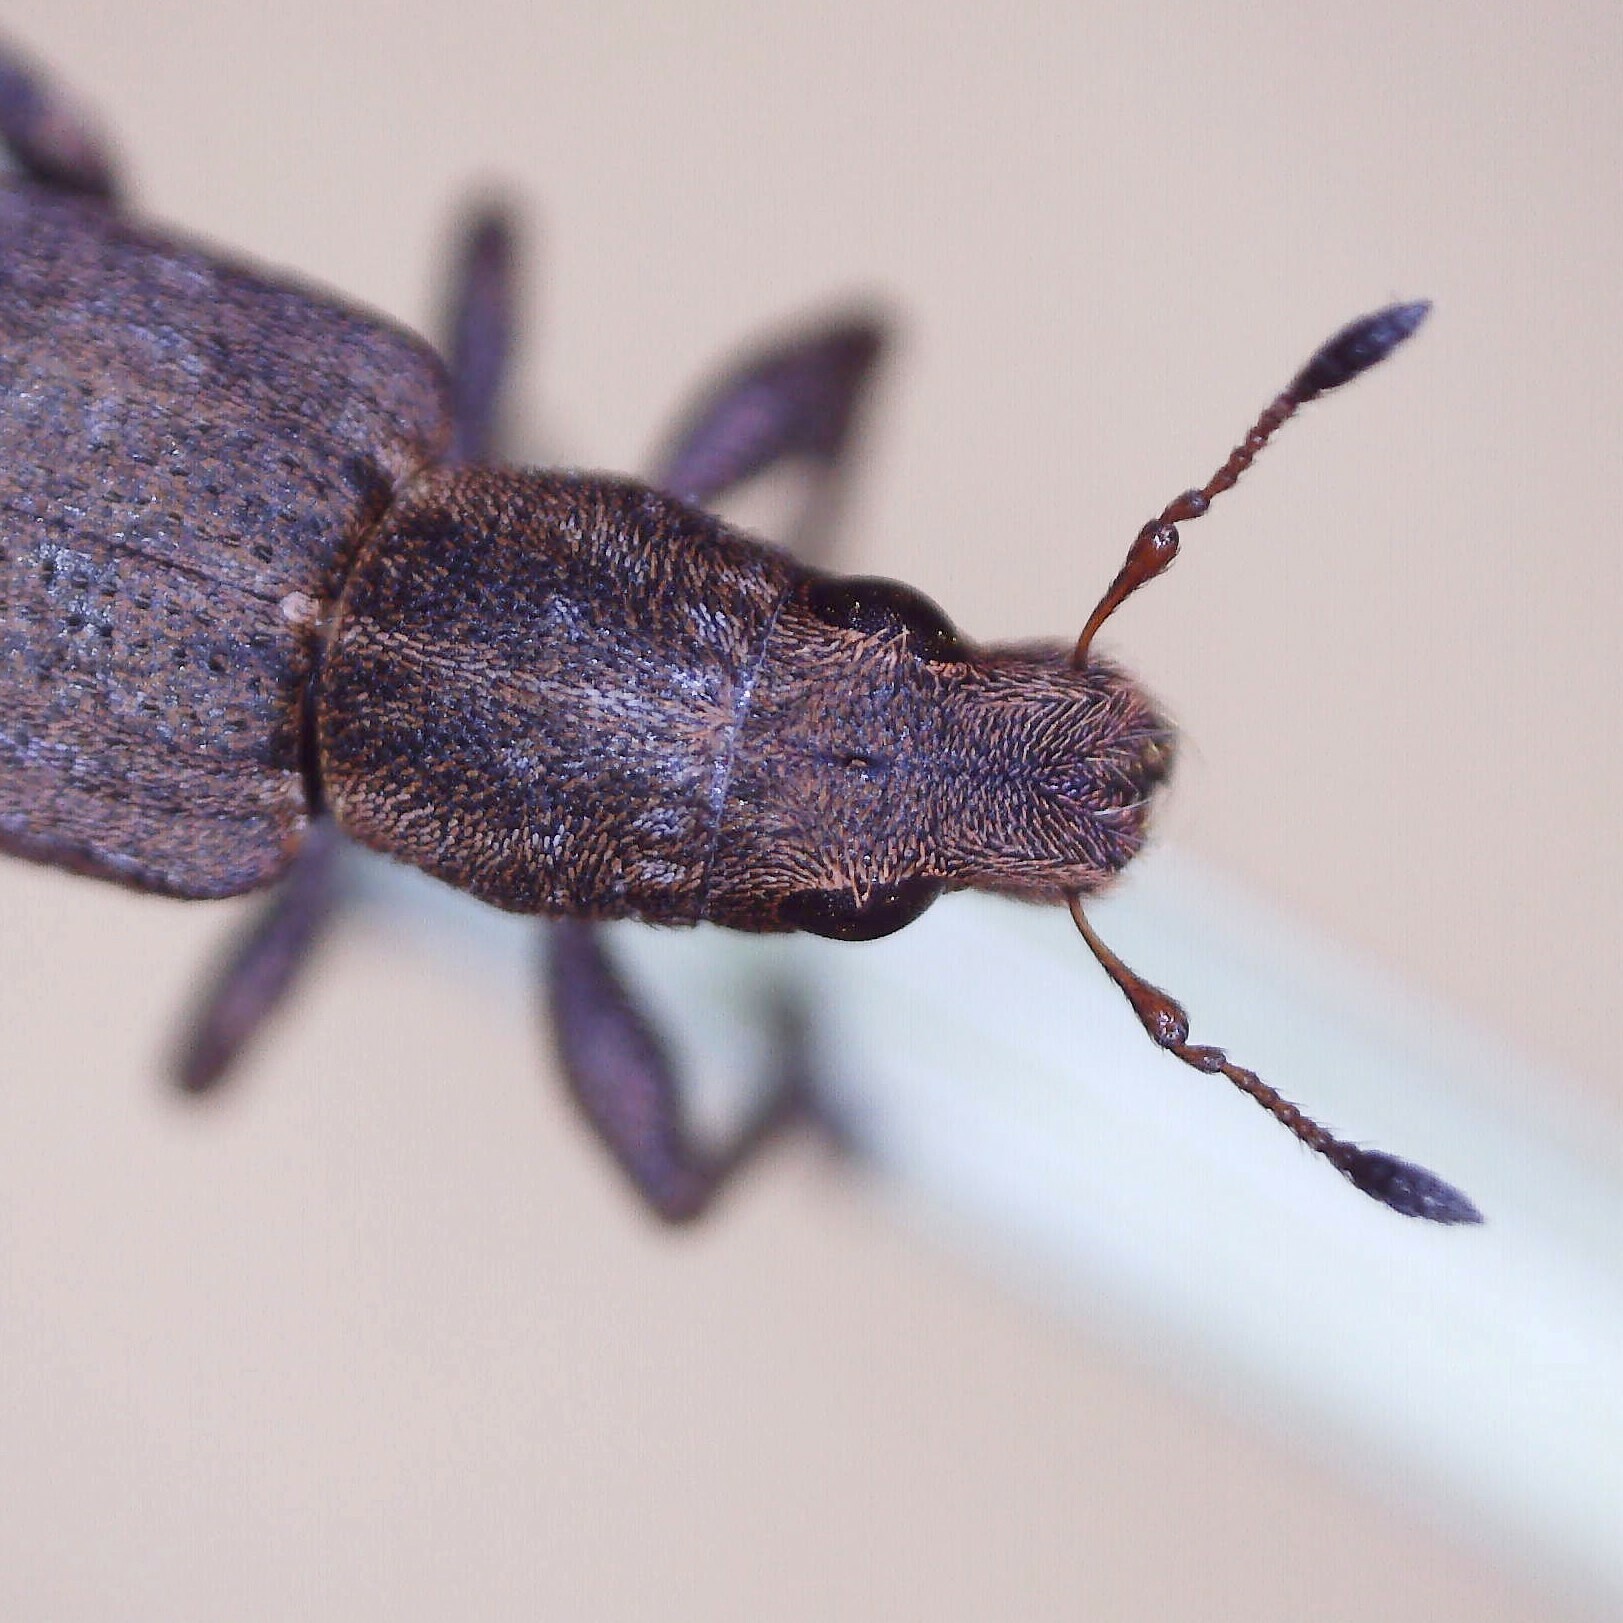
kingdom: Animalia
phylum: Arthropoda
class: Insecta
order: Coleoptera
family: Curculionidae
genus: Sitona
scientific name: Sitona obsoletus
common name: Weevil
